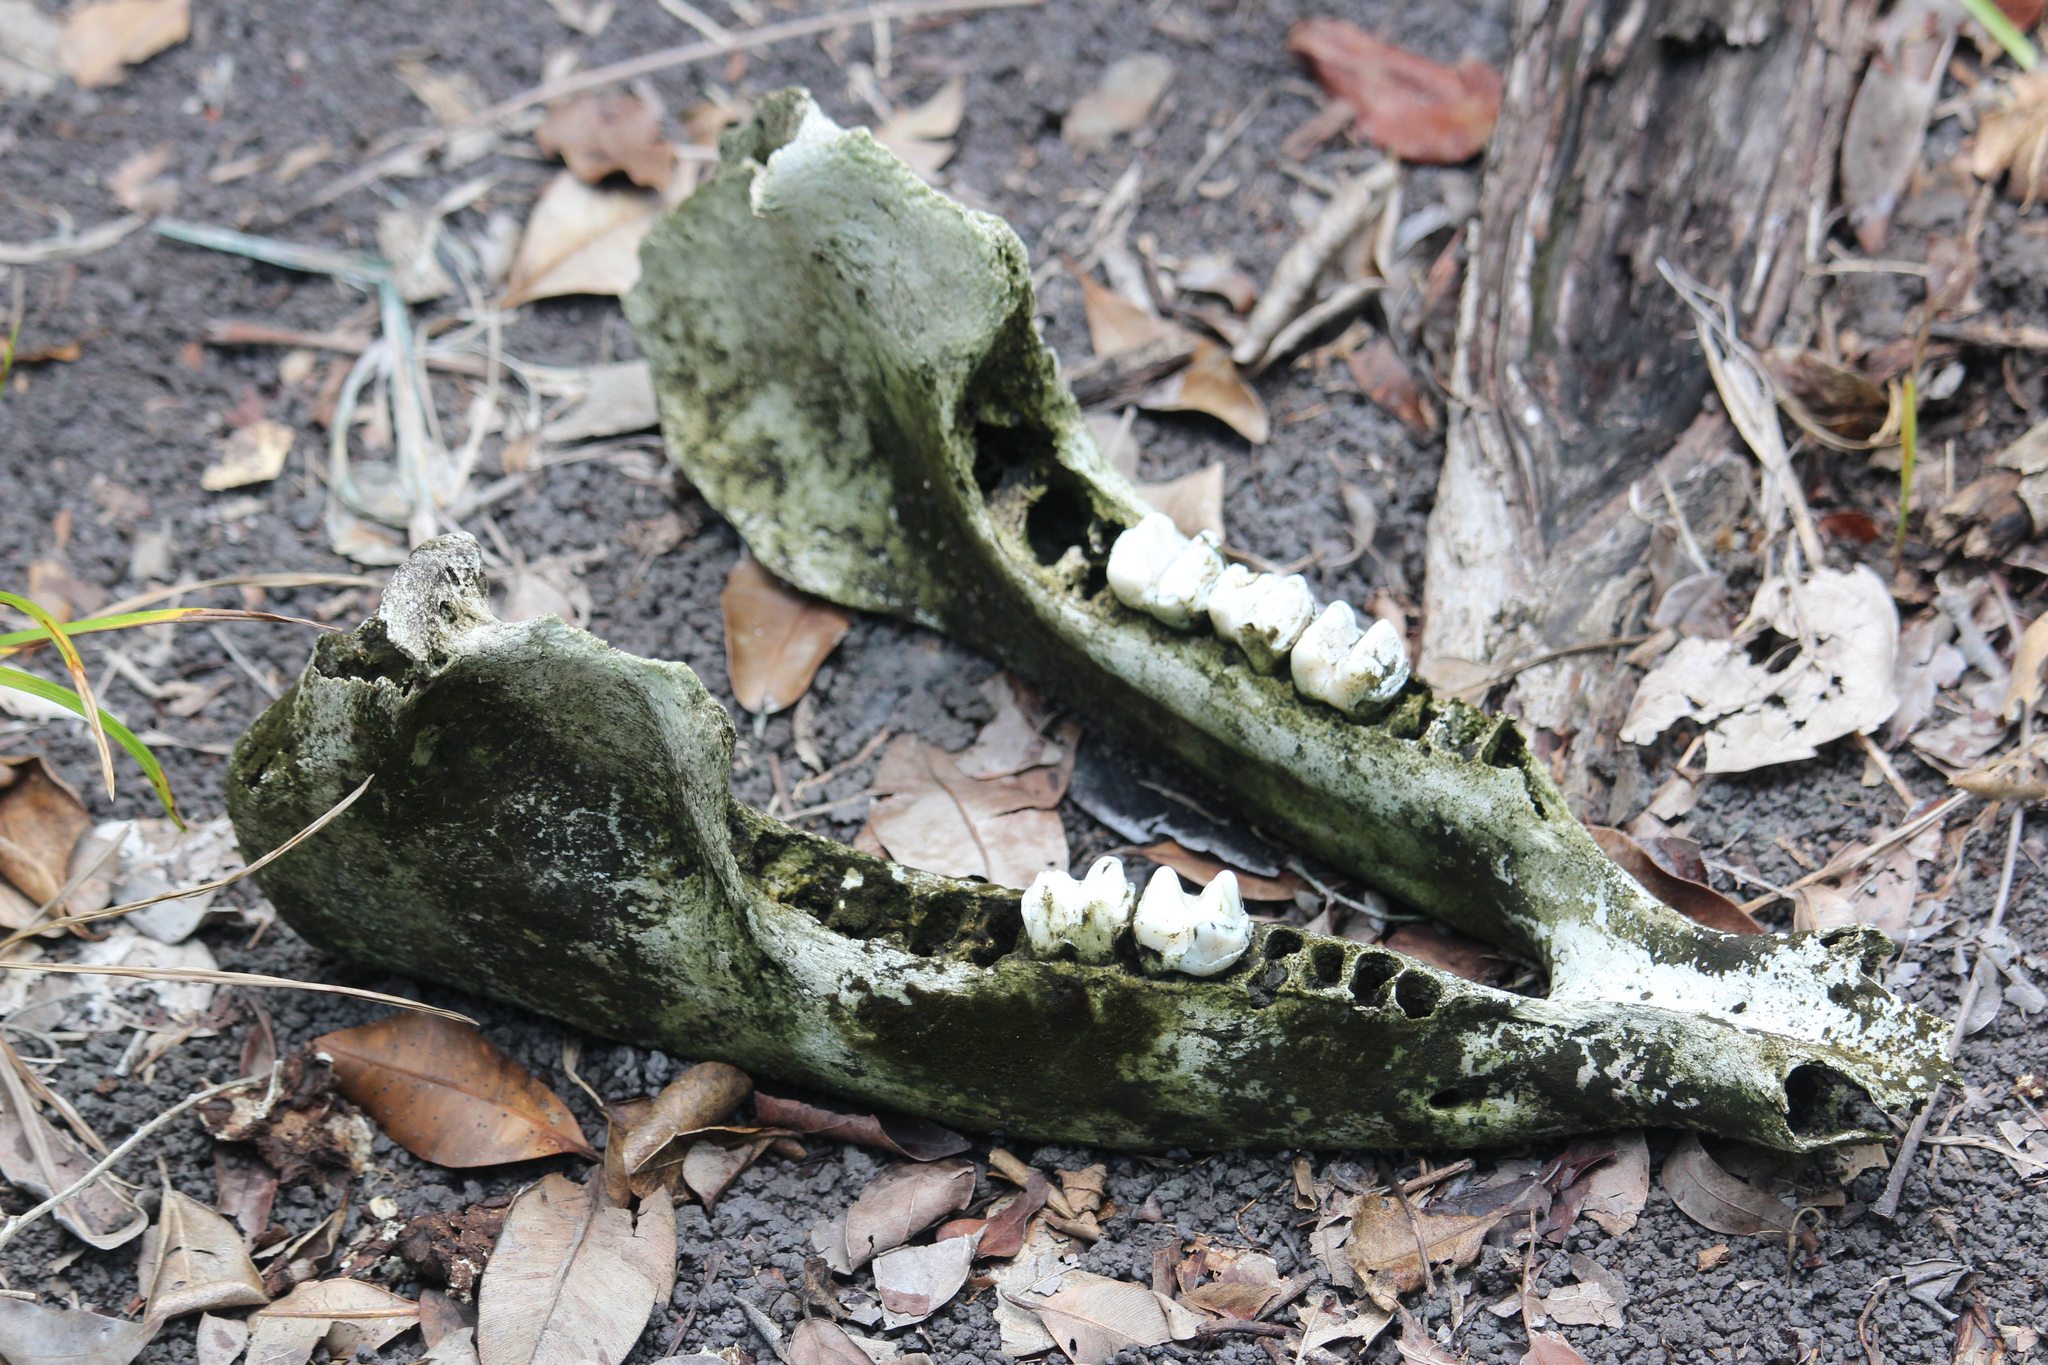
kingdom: Animalia
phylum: Chordata
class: Mammalia
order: Perissodactyla
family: Tapiridae
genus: Tapirella
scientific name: Tapirella bairdii
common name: Baird's tapir
